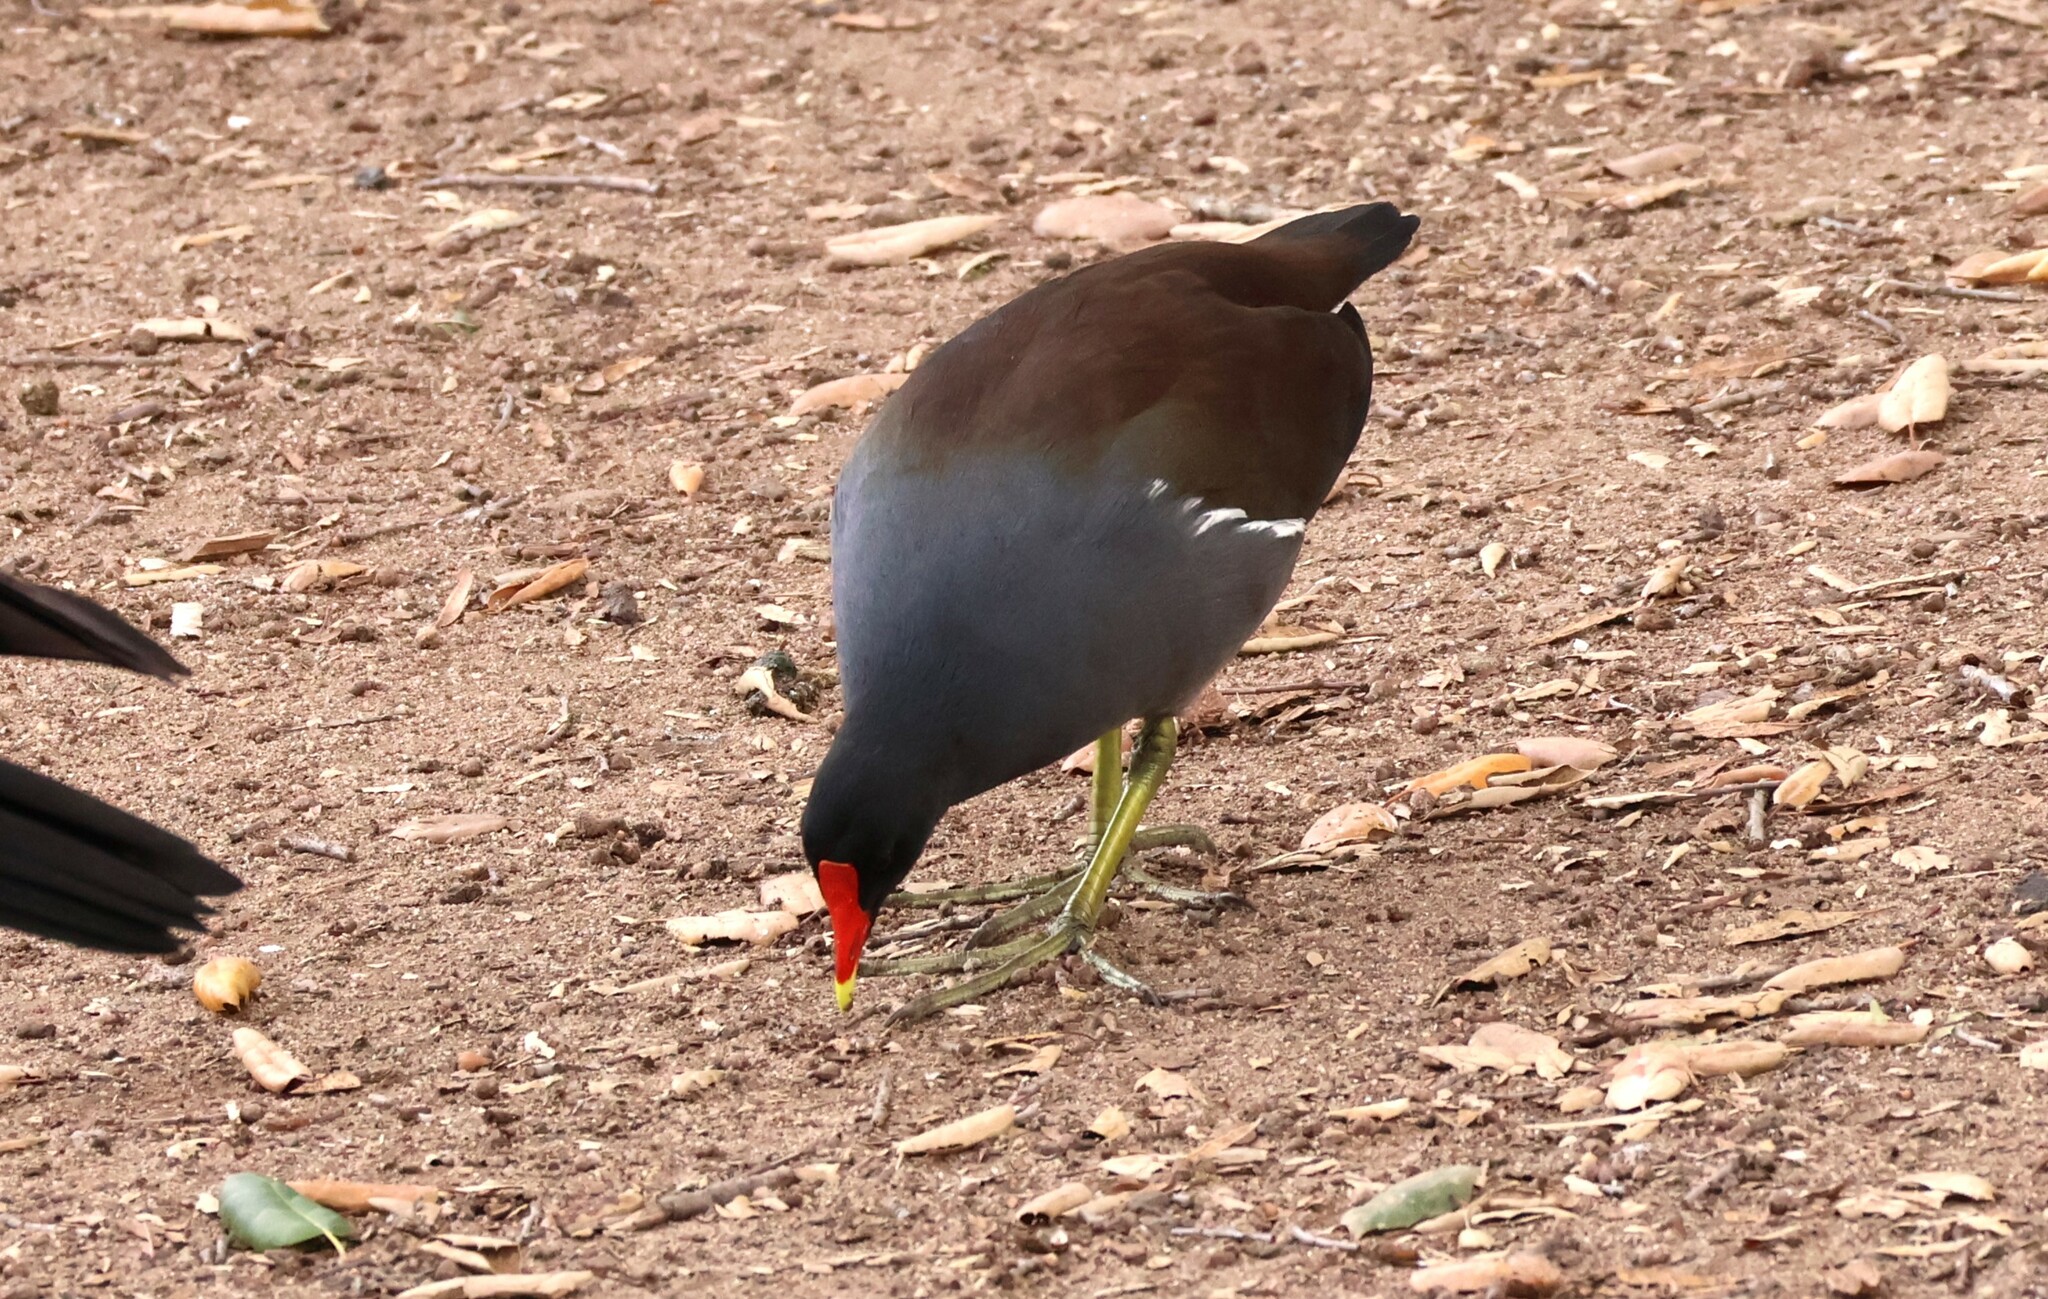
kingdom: Animalia
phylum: Chordata
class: Aves
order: Gruiformes
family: Rallidae
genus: Gallinula
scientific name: Gallinula chloropus
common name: Common moorhen
